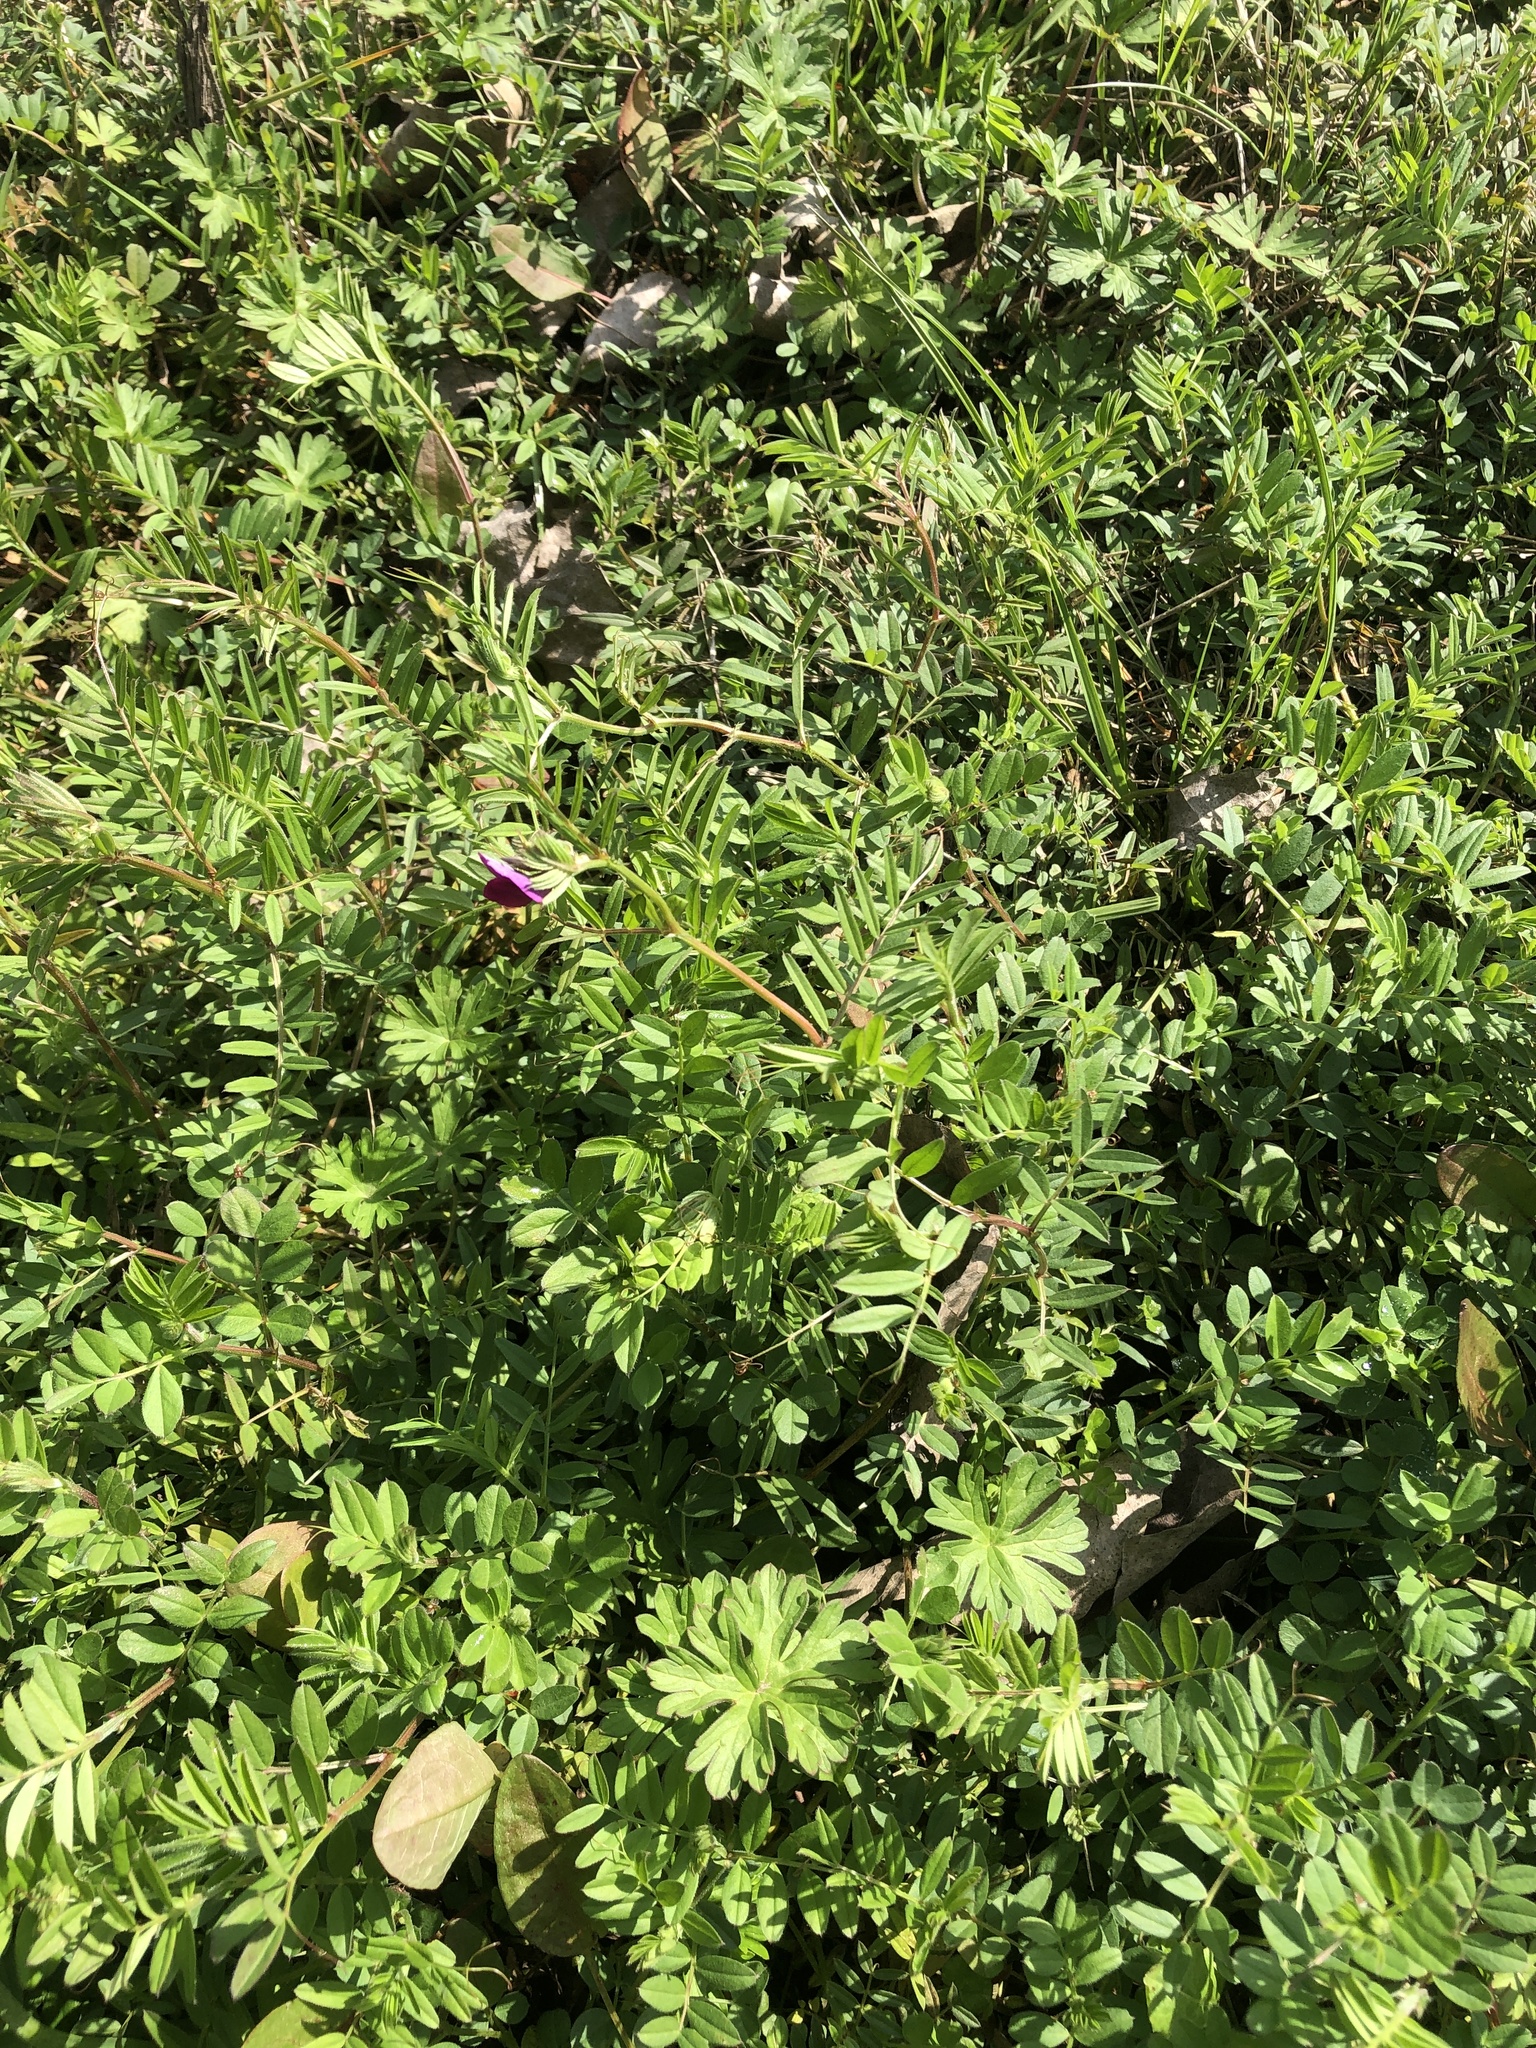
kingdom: Plantae
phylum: Tracheophyta
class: Magnoliopsida
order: Fabales
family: Fabaceae
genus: Vicia
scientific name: Vicia sativa
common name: Garden vetch
